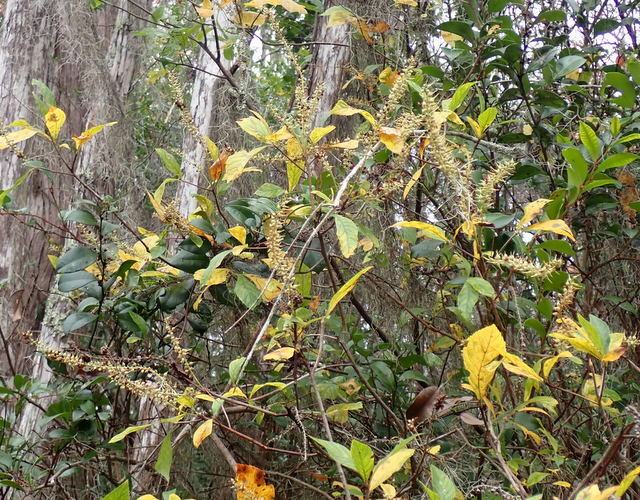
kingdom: Plantae
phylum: Tracheophyta
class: Magnoliopsida
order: Ericales
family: Clethraceae
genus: Clethra
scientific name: Clethra alnifolia
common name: Sweet pepperbush
